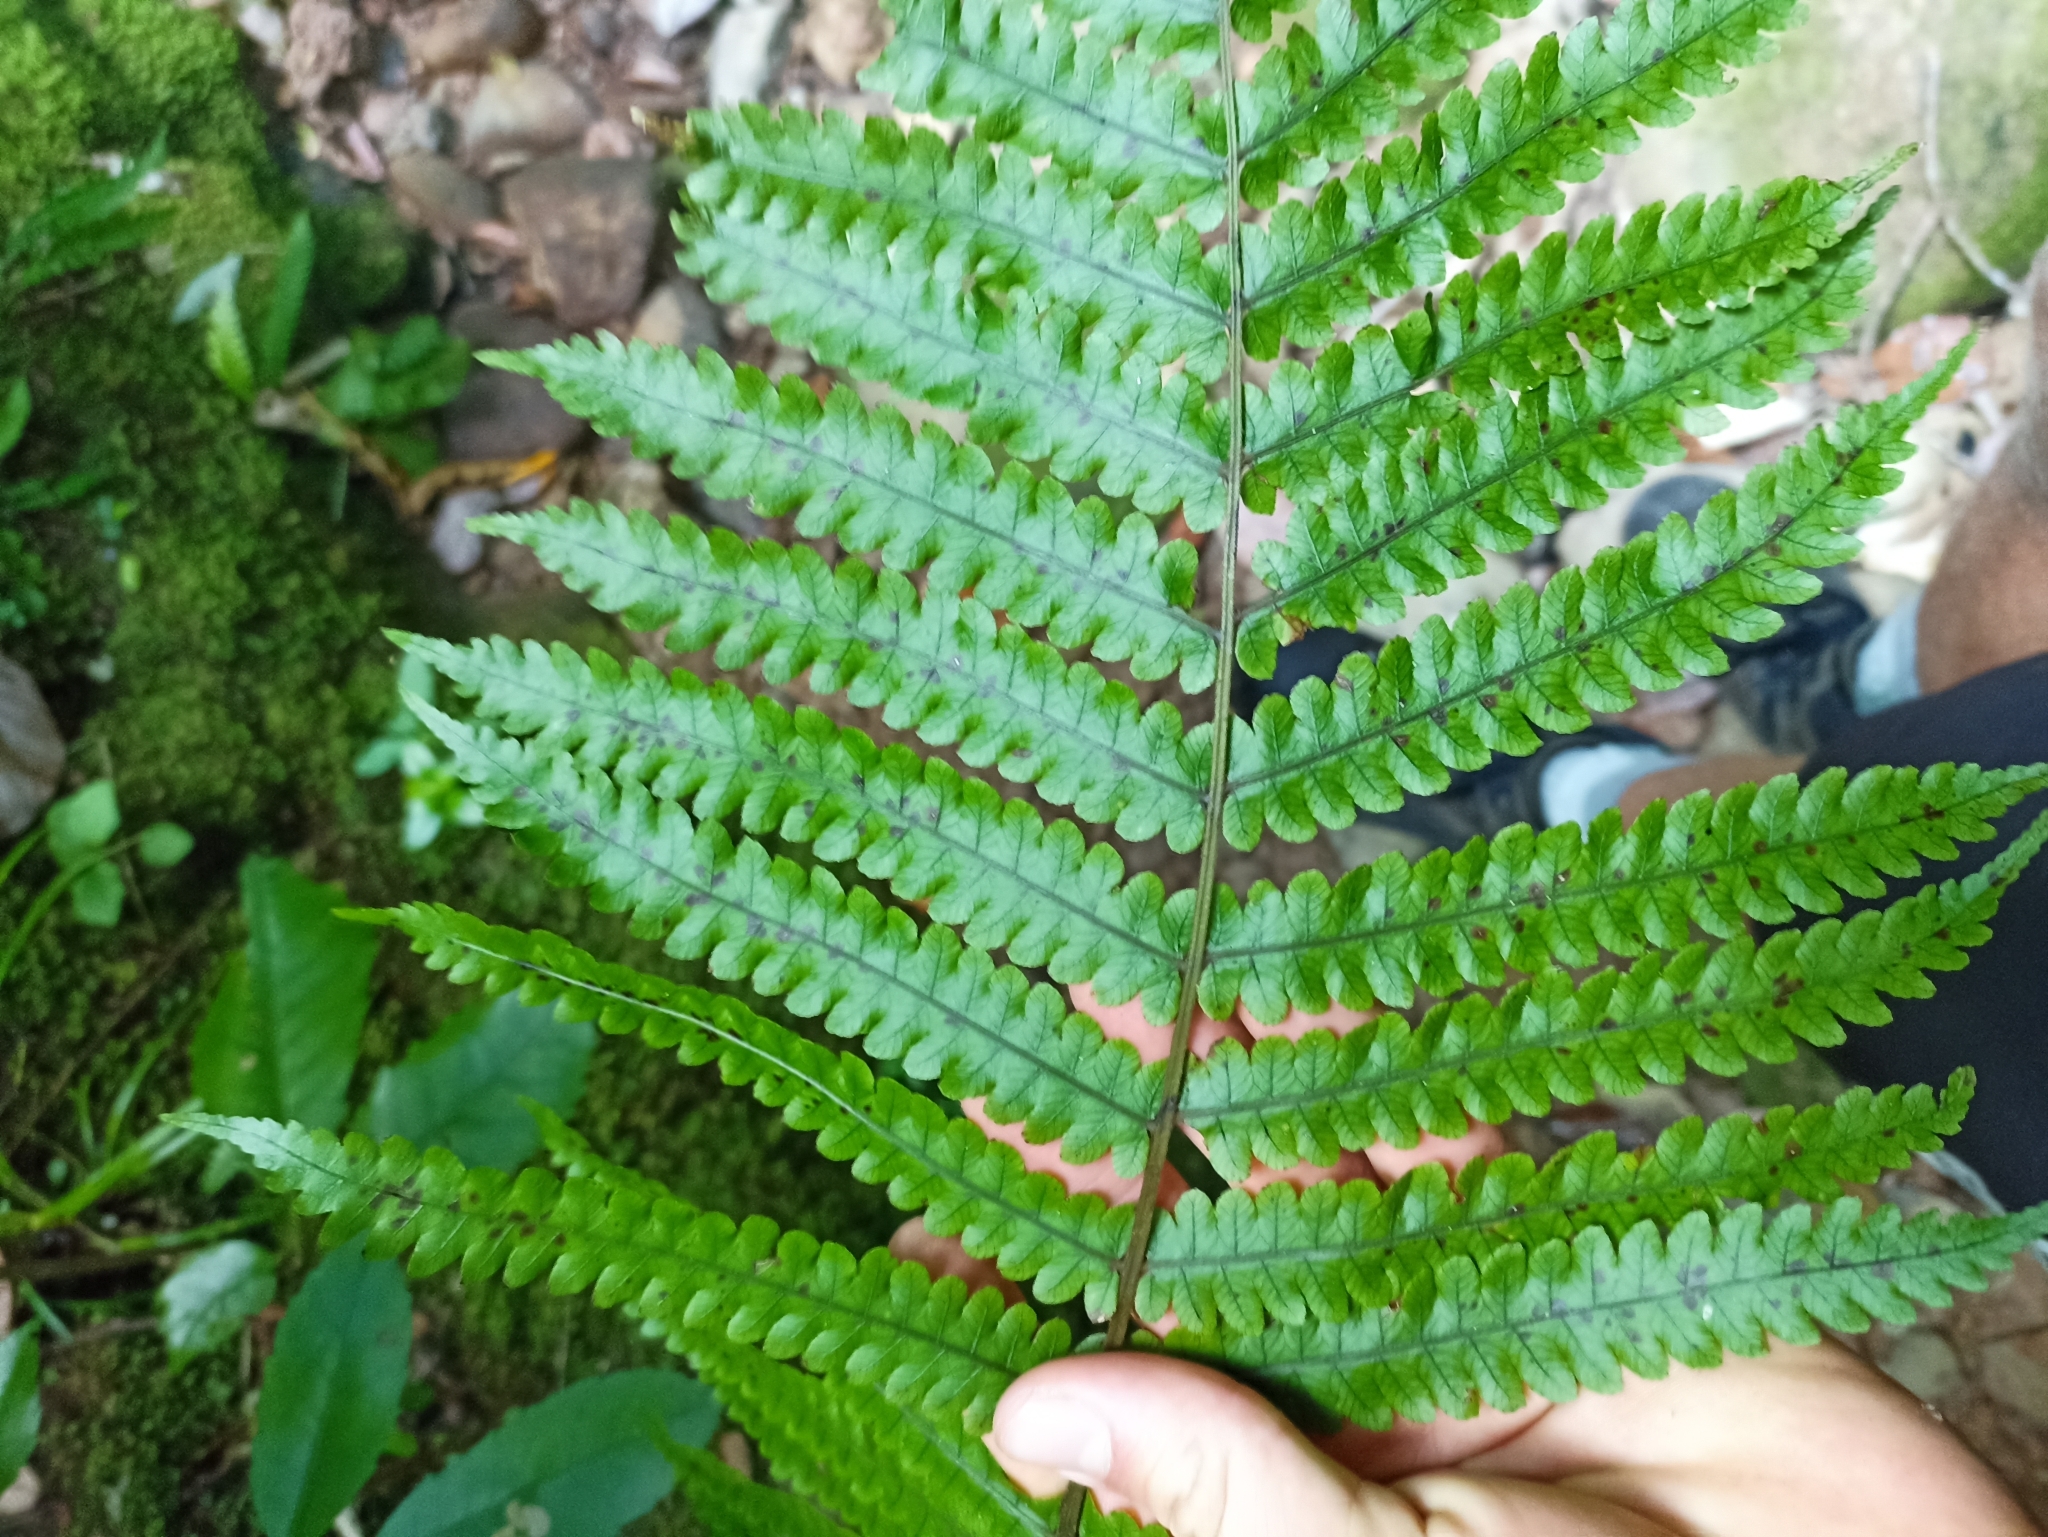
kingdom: Plantae
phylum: Tracheophyta
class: Polypodiopsida
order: Polypodiales
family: Thelypteridaceae
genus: Pakau
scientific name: Pakau pennigera
